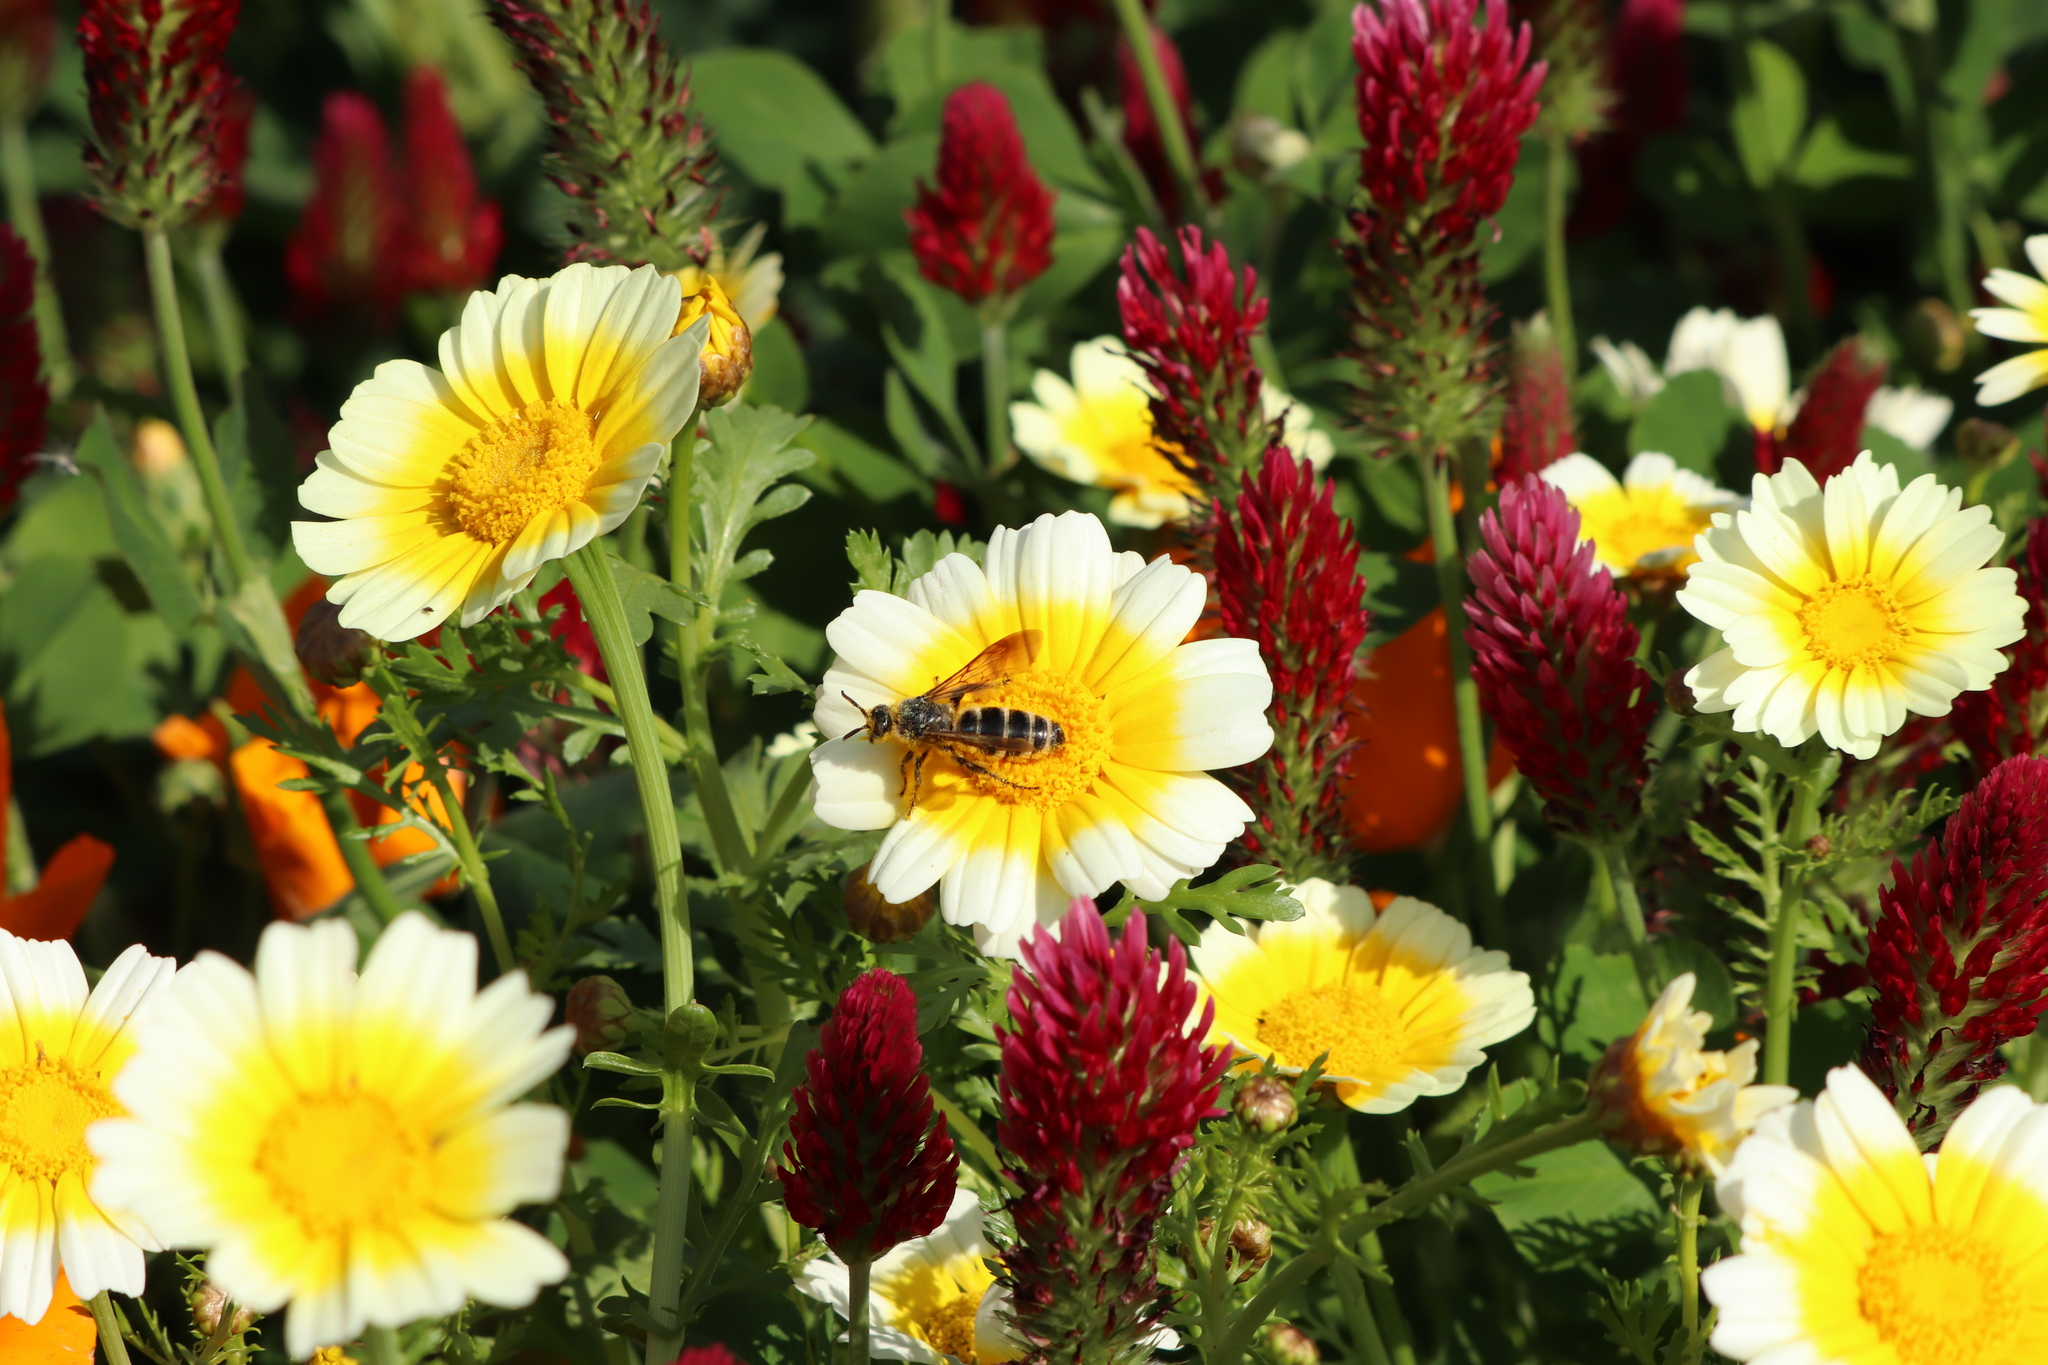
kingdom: Animalia
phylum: Arthropoda
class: Insecta
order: Hymenoptera
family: Scoliidae
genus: Campsomeris
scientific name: Campsomeris annulata
